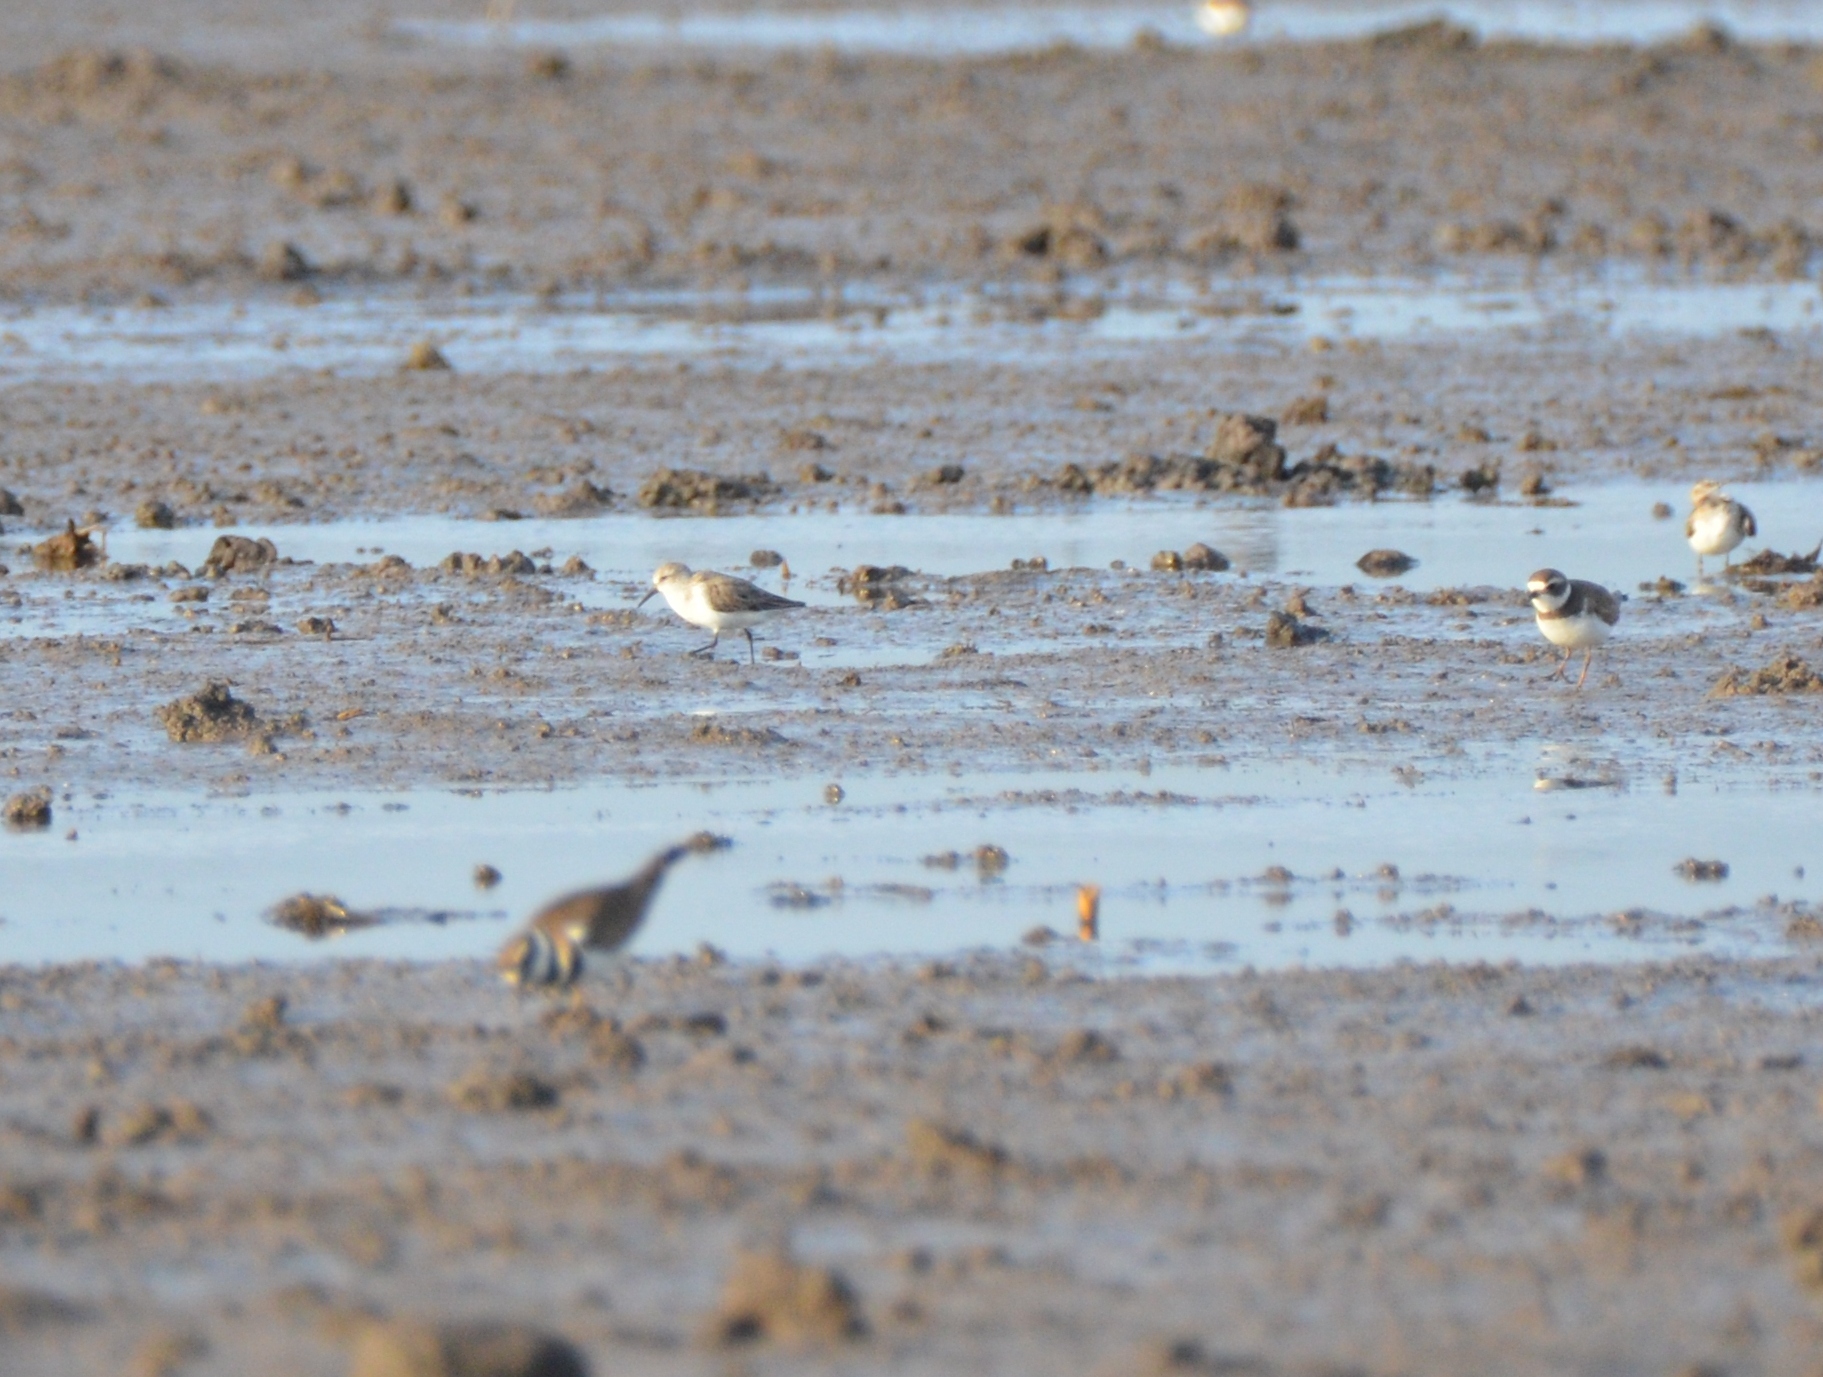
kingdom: Animalia
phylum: Chordata
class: Aves
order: Charadriiformes
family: Scolopacidae
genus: Calidris
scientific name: Calidris mauri
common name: Western sandpiper
